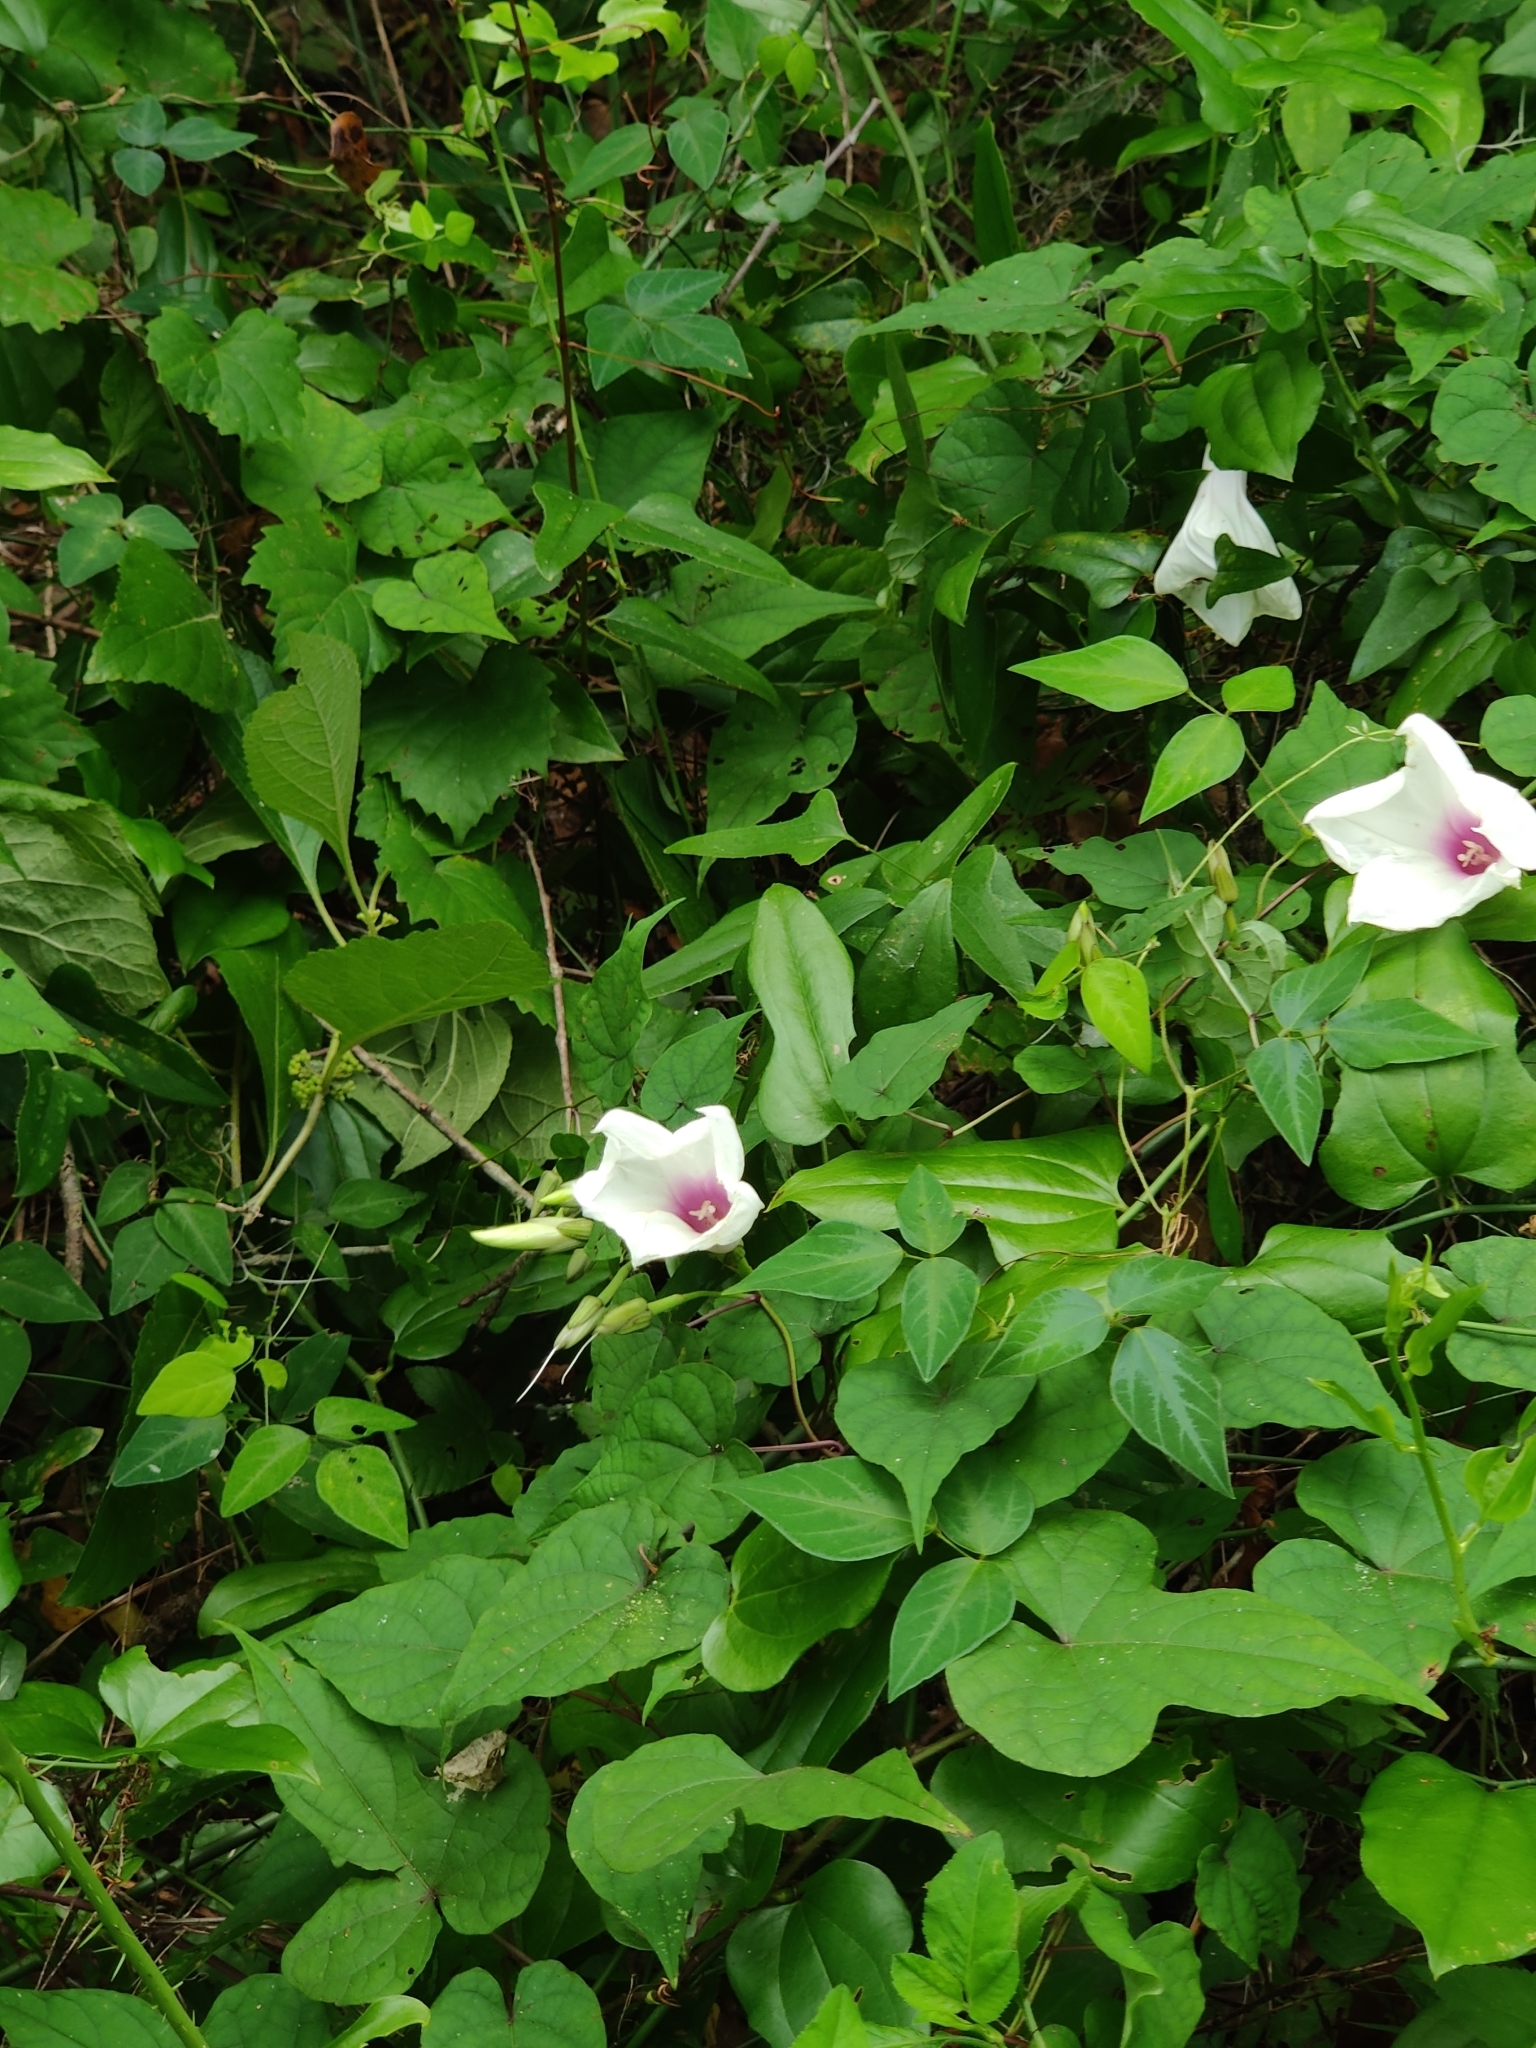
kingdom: Plantae
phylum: Tracheophyta
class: Magnoliopsida
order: Solanales
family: Convolvulaceae
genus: Ipomoea
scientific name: Ipomoea pandurata
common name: Man-of-the-earth
